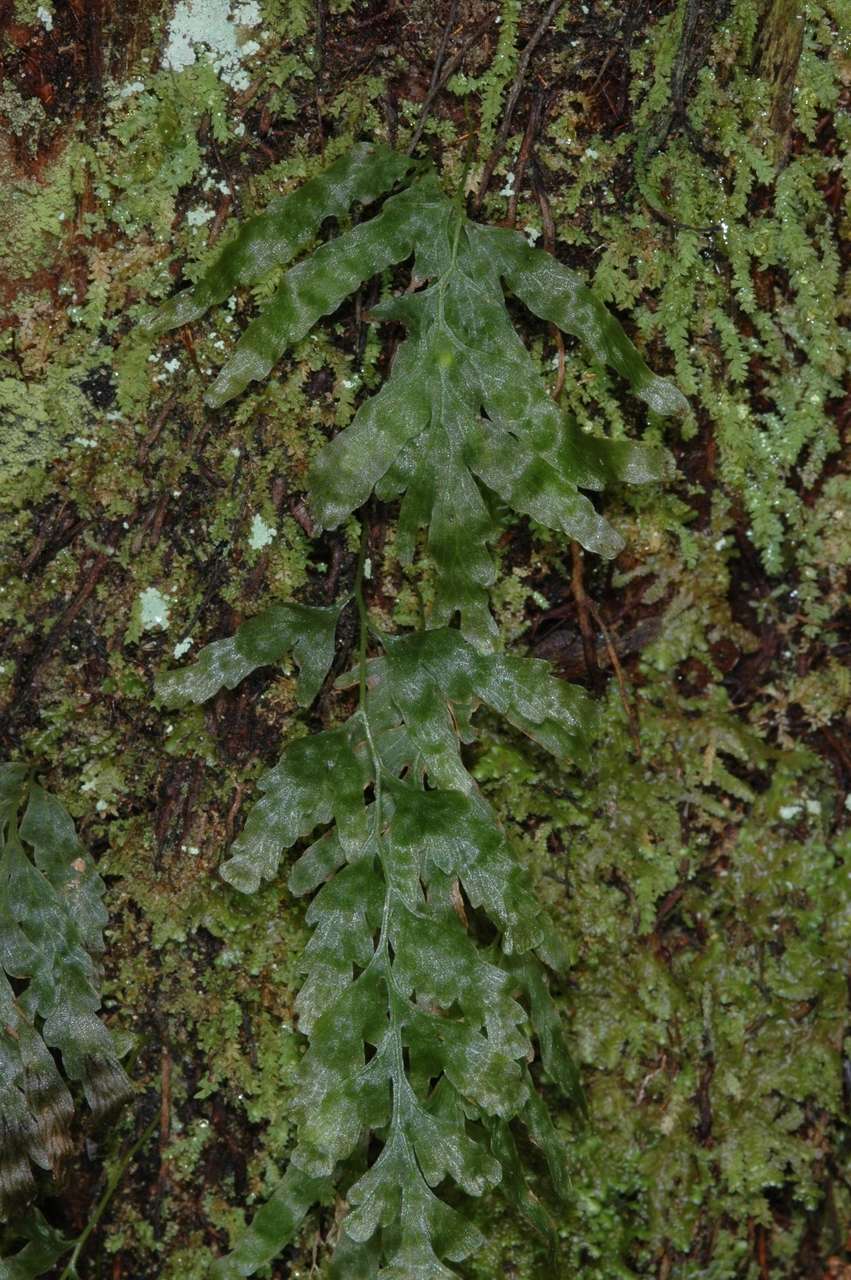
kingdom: Plantae
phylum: Tracheophyta
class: Polypodiopsida
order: Hymenophyllales
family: Hymenophyllaceae
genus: Polyphlebium
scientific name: Polyphlebium venosum
